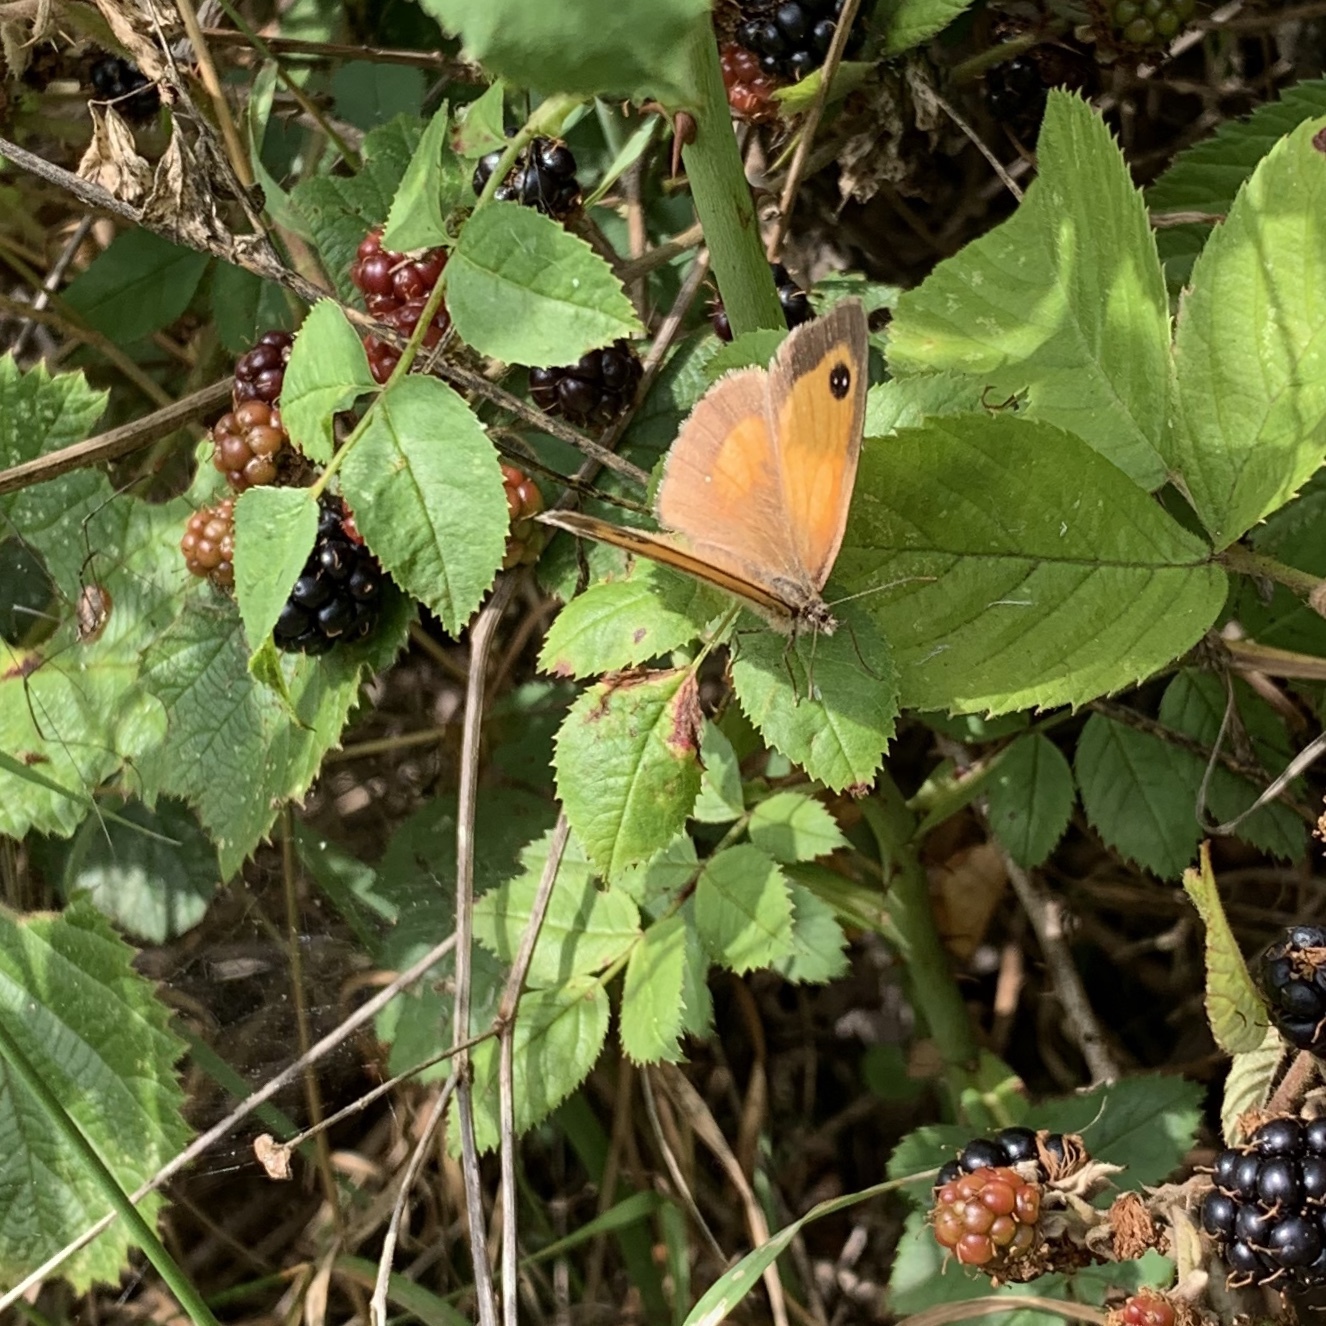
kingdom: Animalia
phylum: Arthropoda
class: Insecta
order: Lepidoptera
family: Nymphalidae
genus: Pyronia
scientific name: Pyronia tithonus
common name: Gatekeeper
